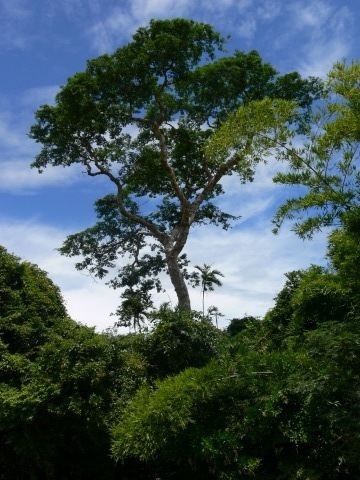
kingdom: Plantae
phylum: Tracheophyta
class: Magnoliopsida
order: Fabales
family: Fabaceae
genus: Albizia
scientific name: Albizia niopoides
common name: Silk tree
